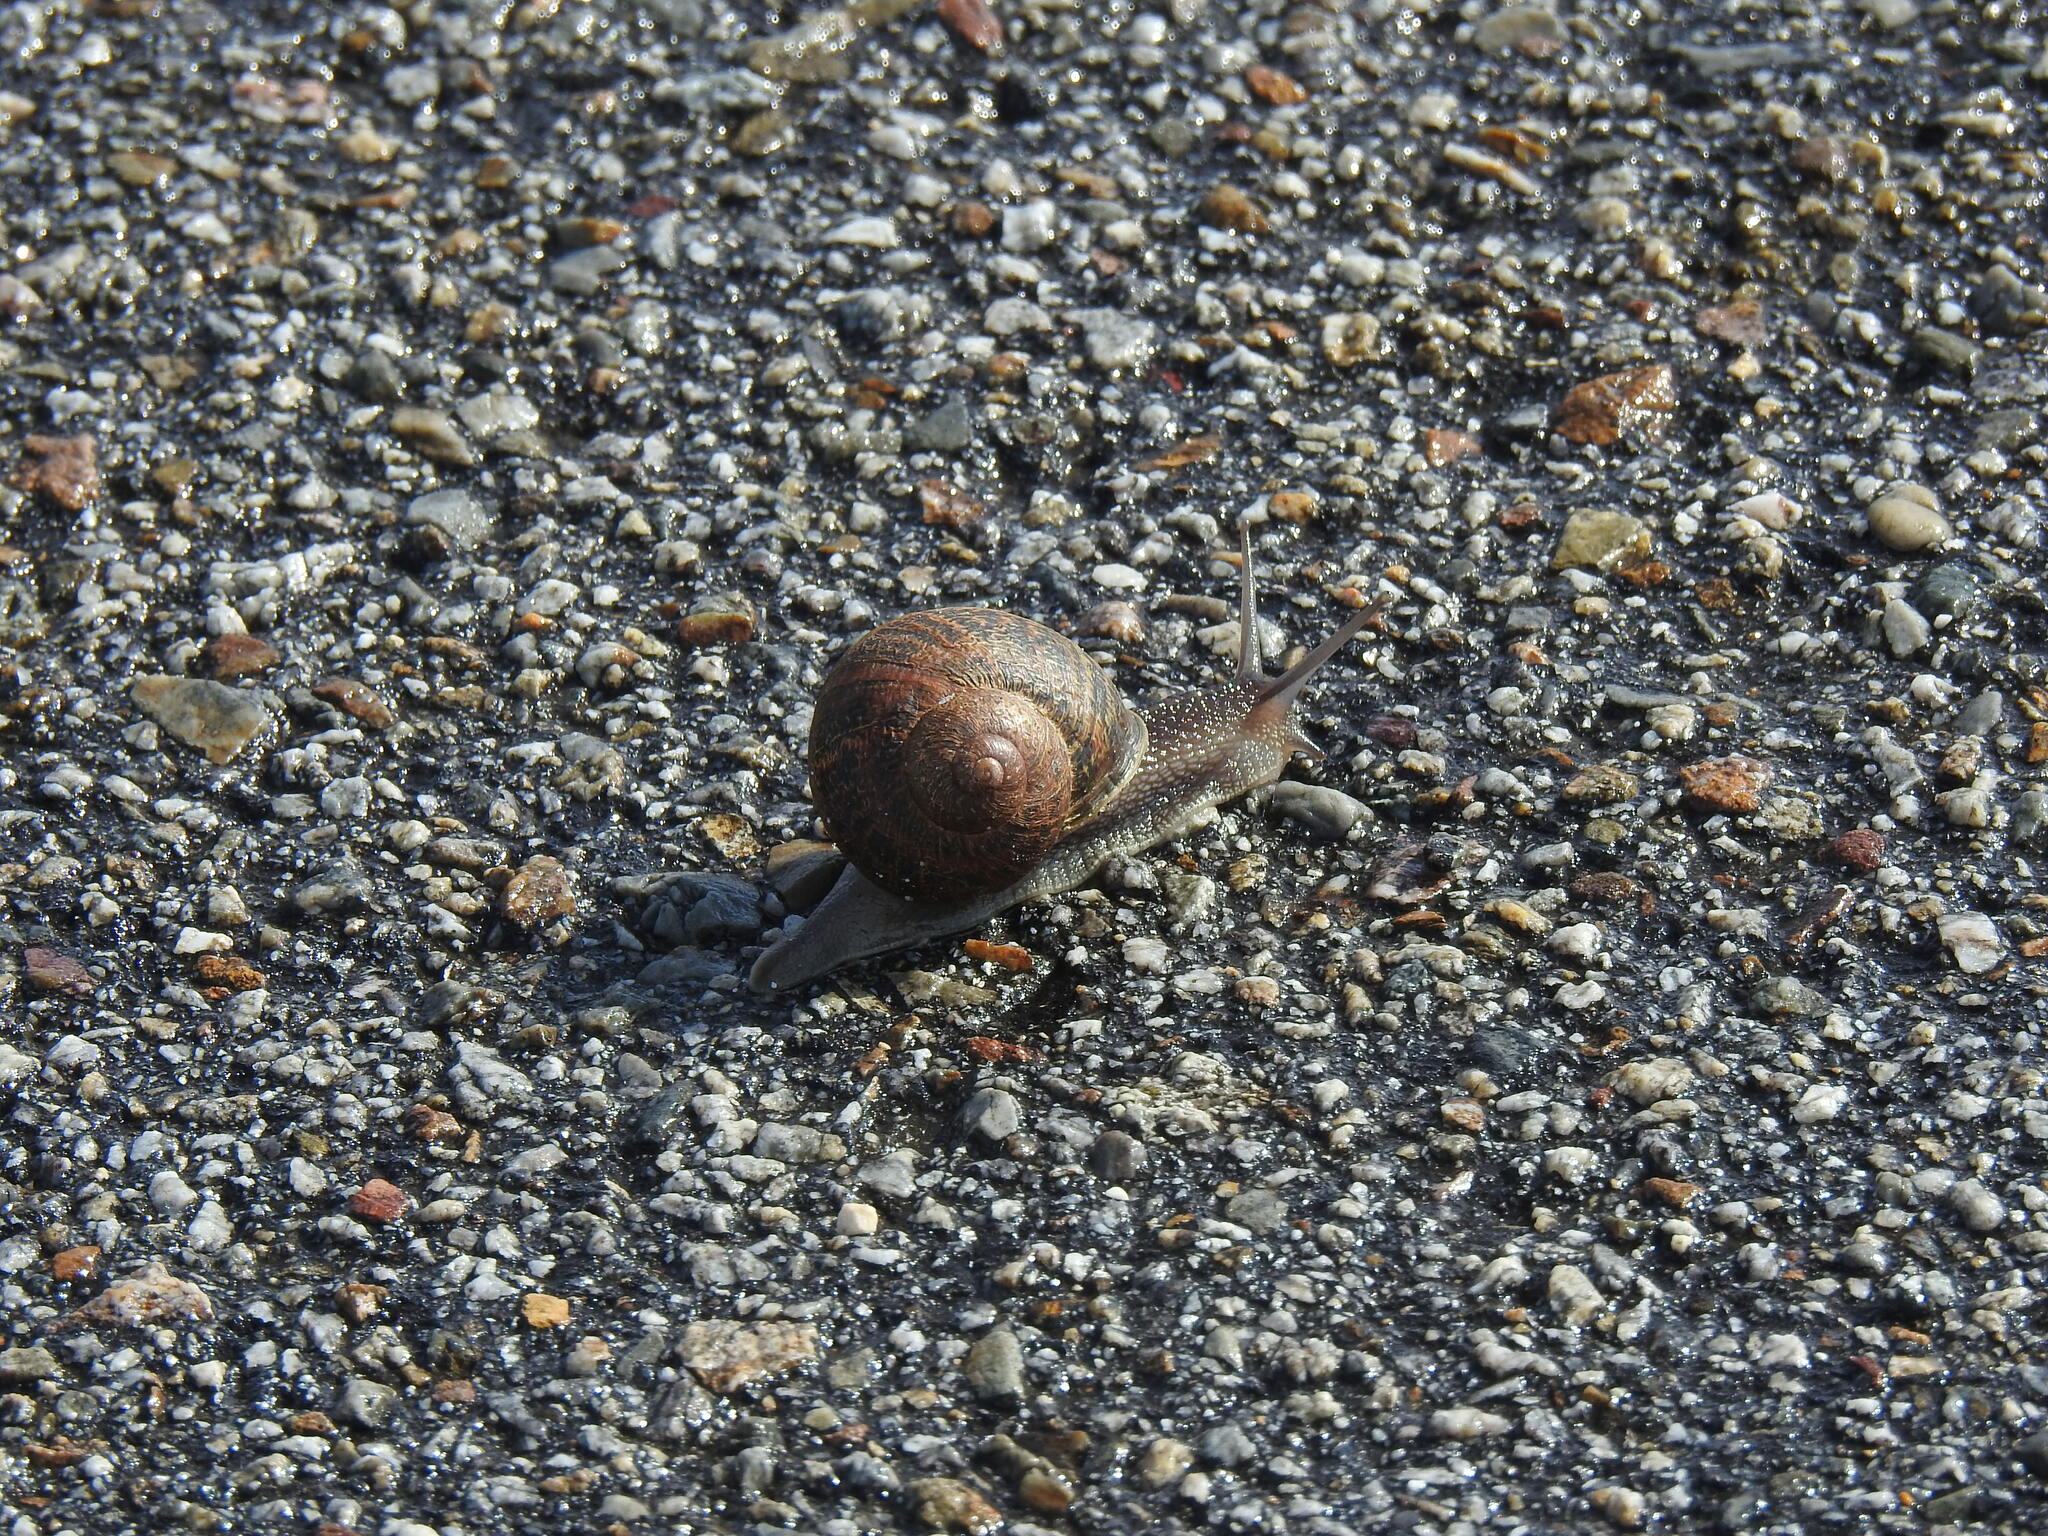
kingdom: Animalia
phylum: Mollusca
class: Gastropoda
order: Stylommatophora
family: Helicidae
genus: Cornu
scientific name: Cornu aspersum
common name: Brown garden snail
